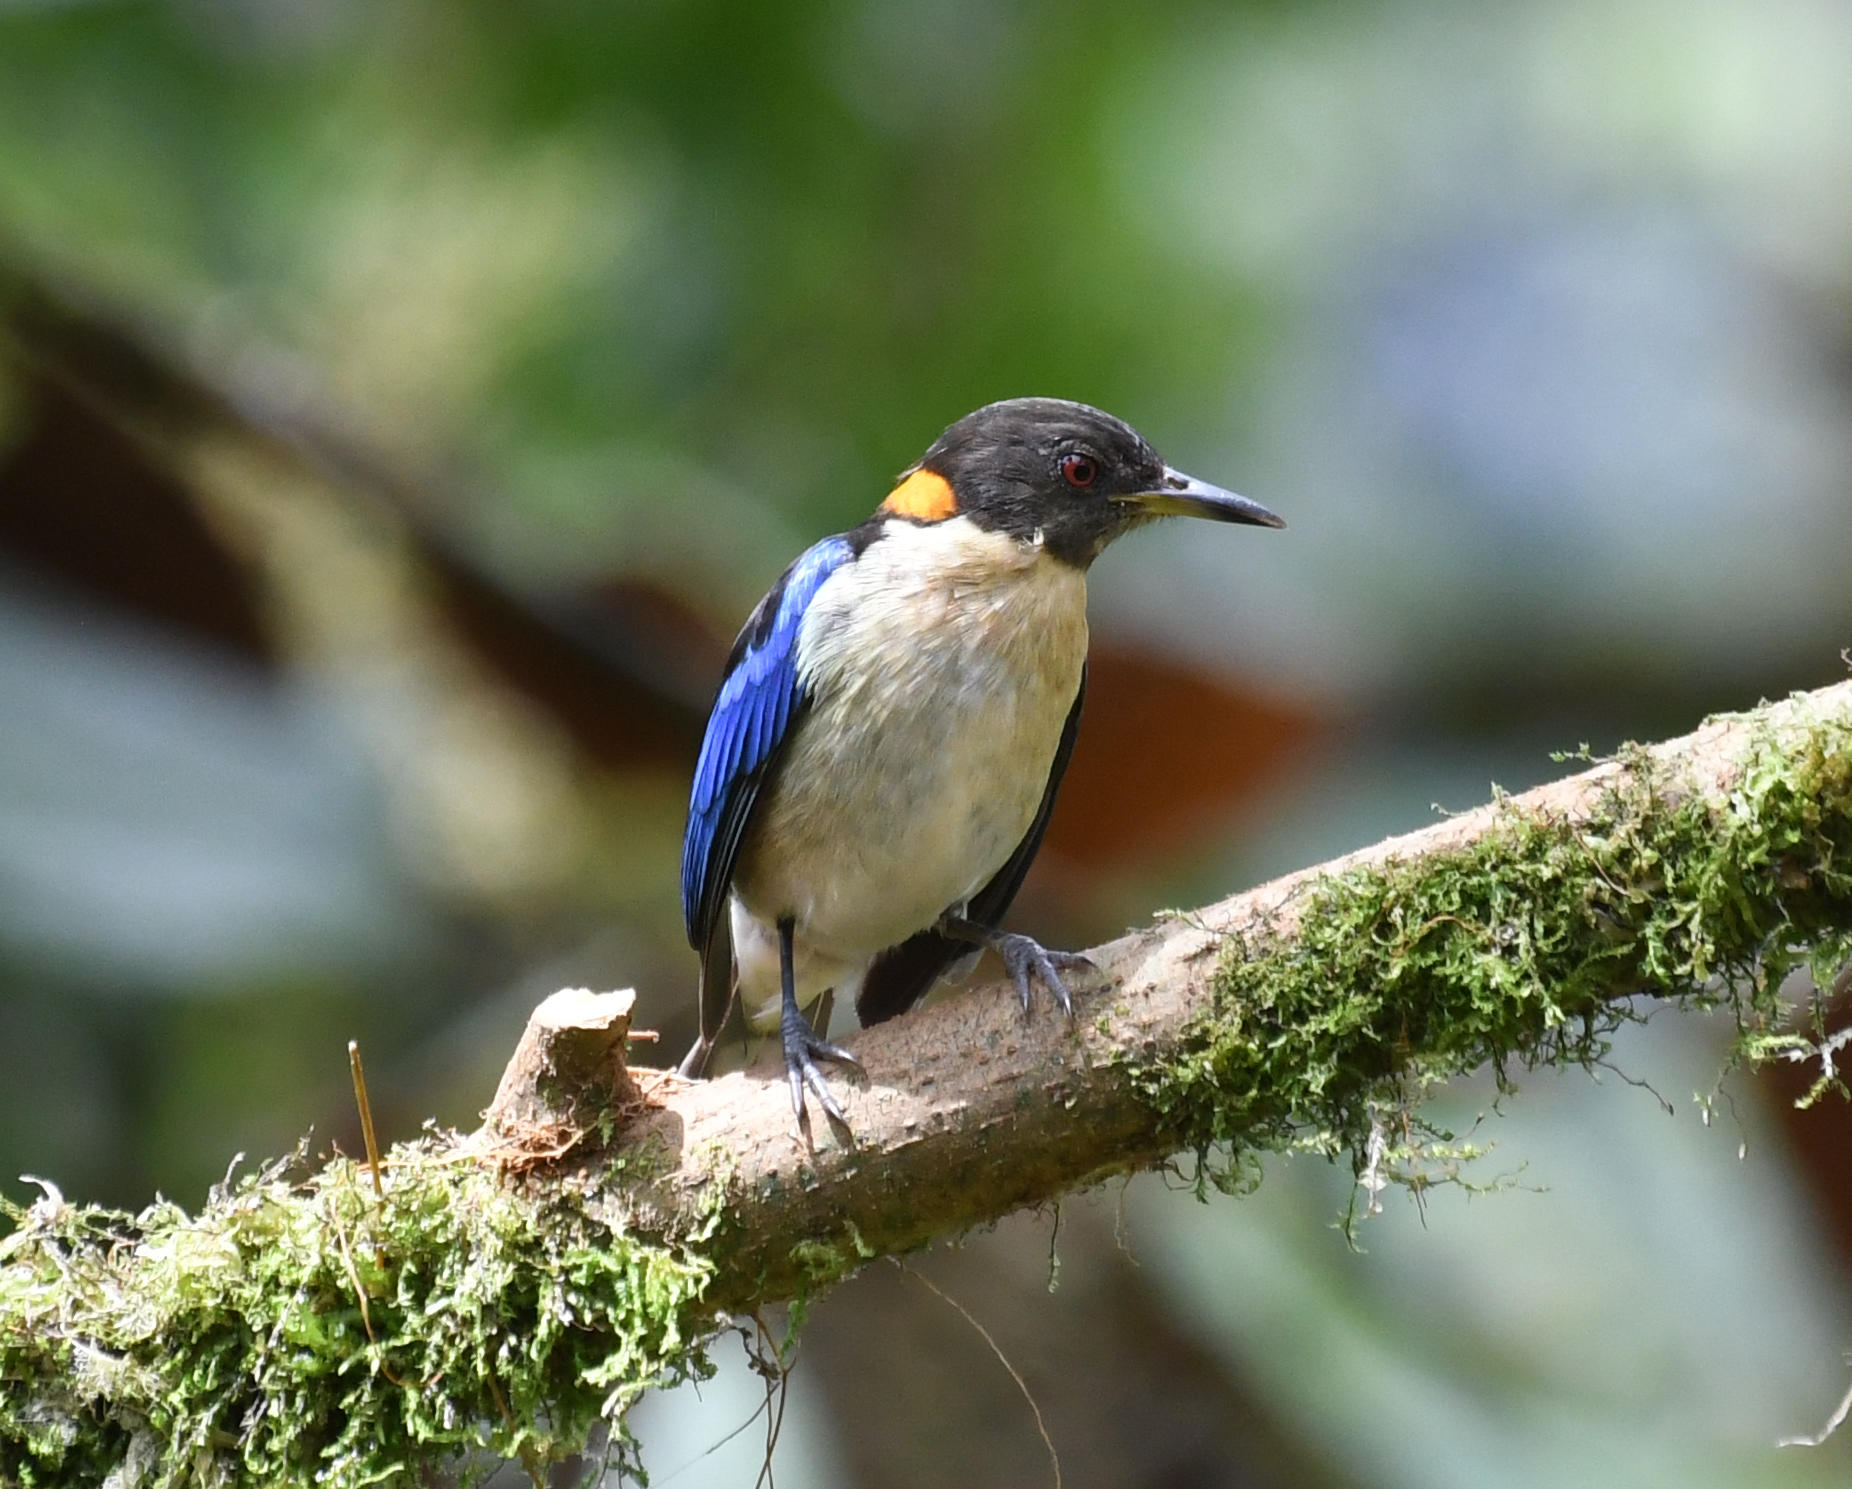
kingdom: Animalia
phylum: Chordata
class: Aves
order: Passeriformes
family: Thraupidae
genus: Iridophanes
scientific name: Iridophanes pulcherrimus
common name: Golden-collared honeycreeper
